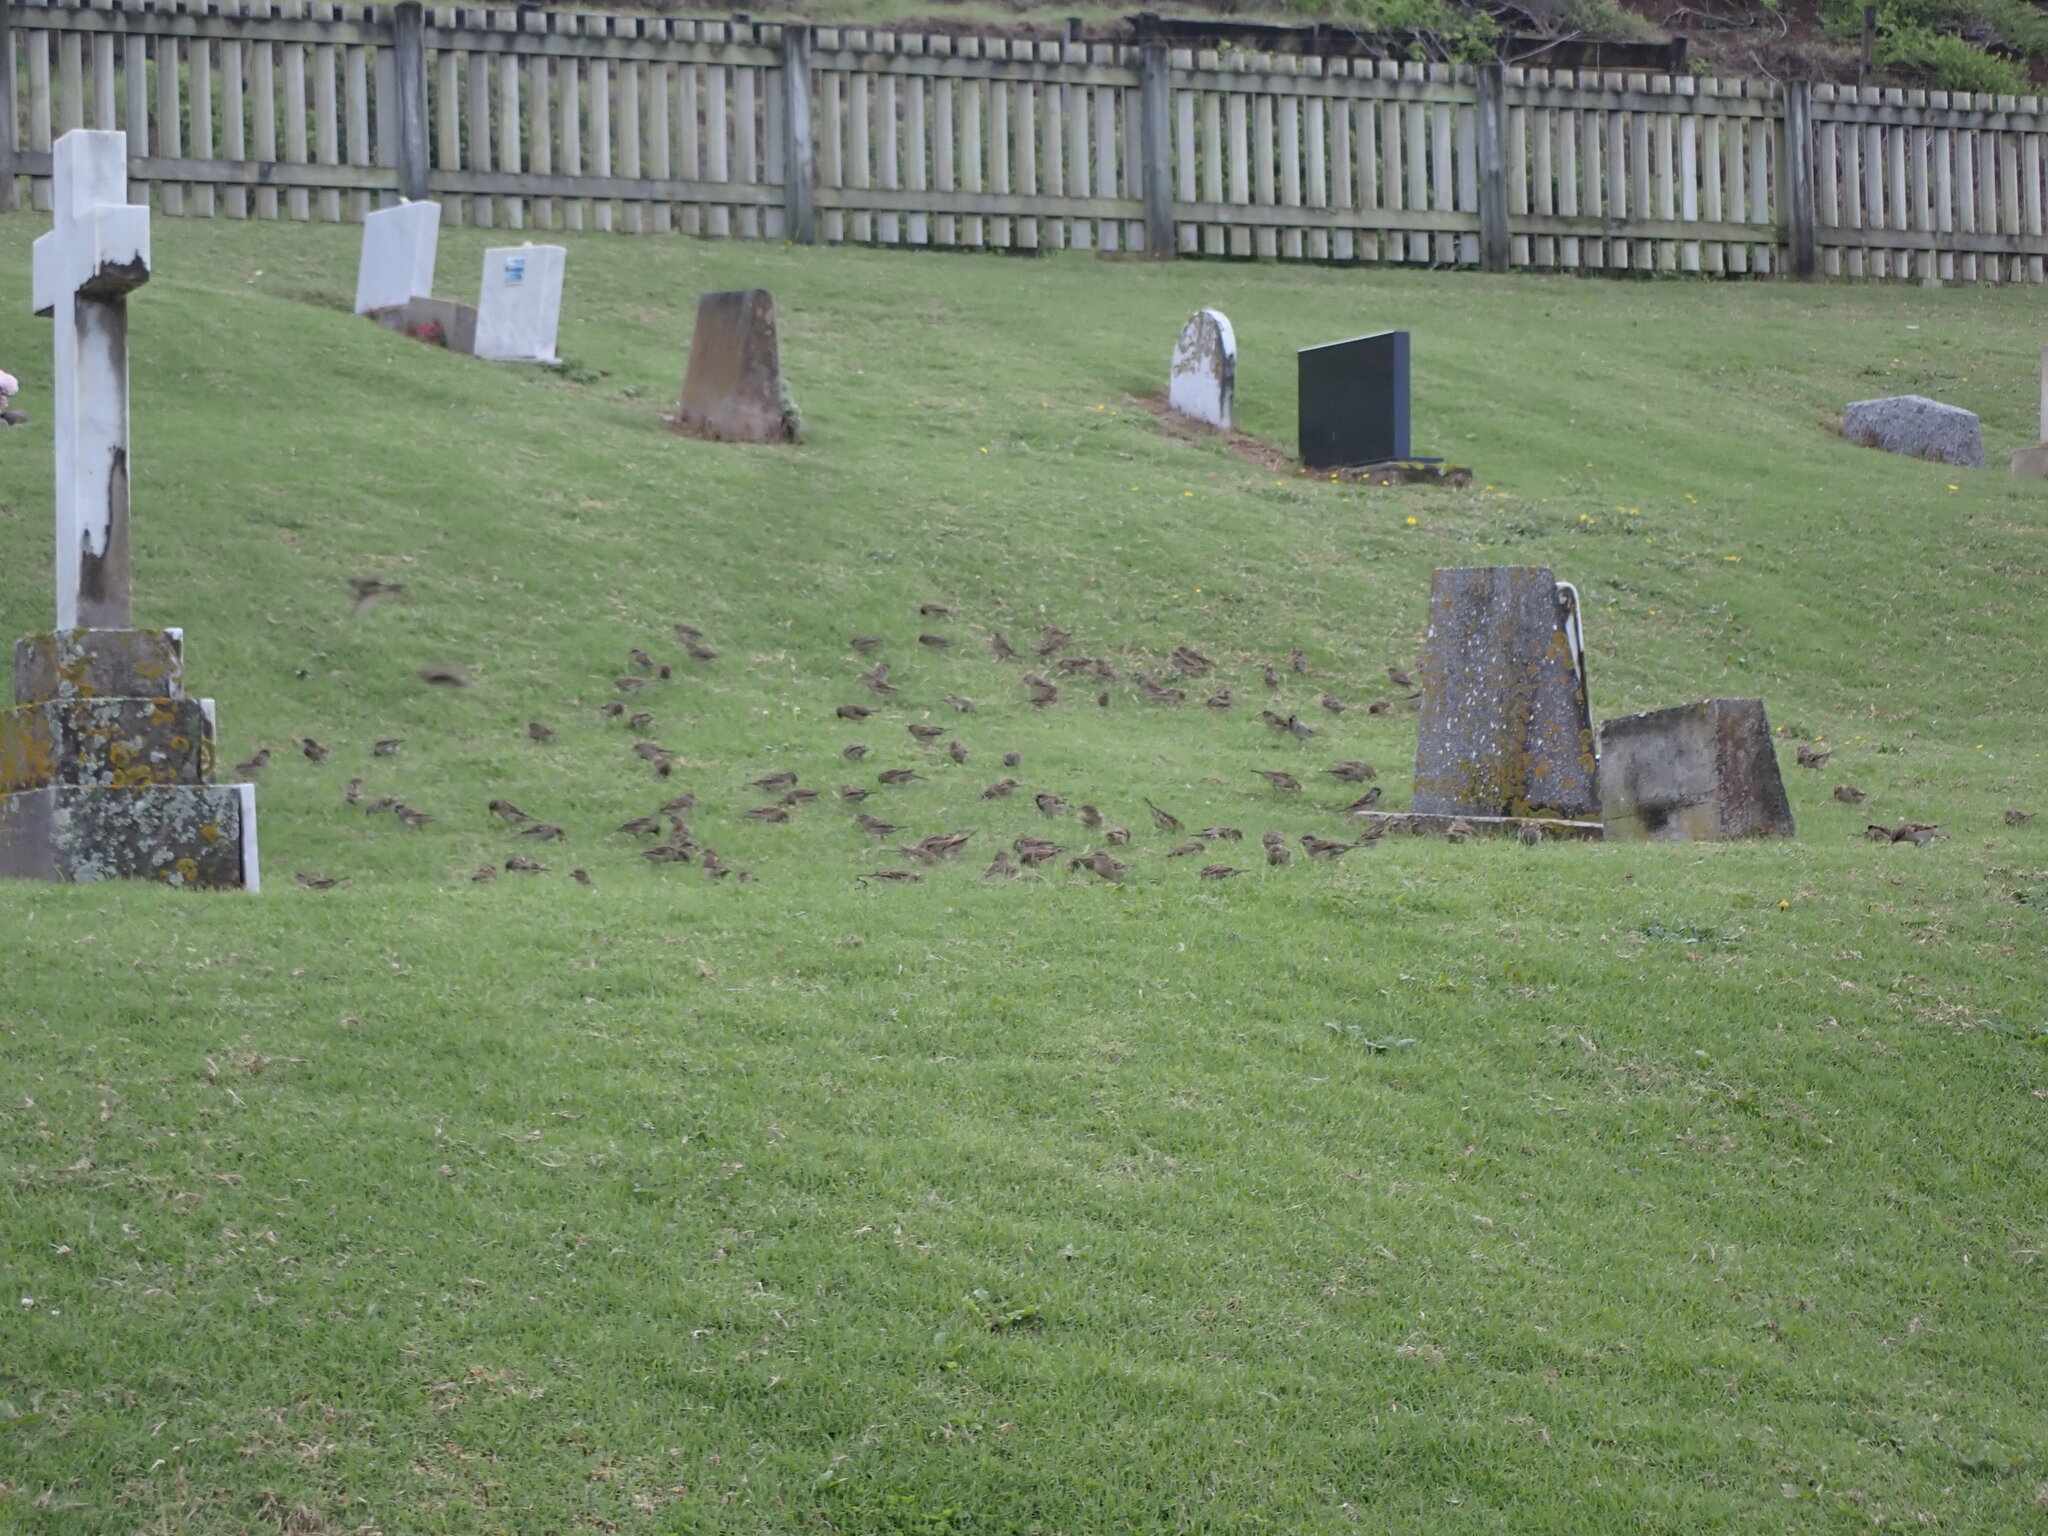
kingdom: Animalia
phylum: Chordata
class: Aves
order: Passeriformes
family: Passeridae
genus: Passer
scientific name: Passer domesticus
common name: House sparrow
